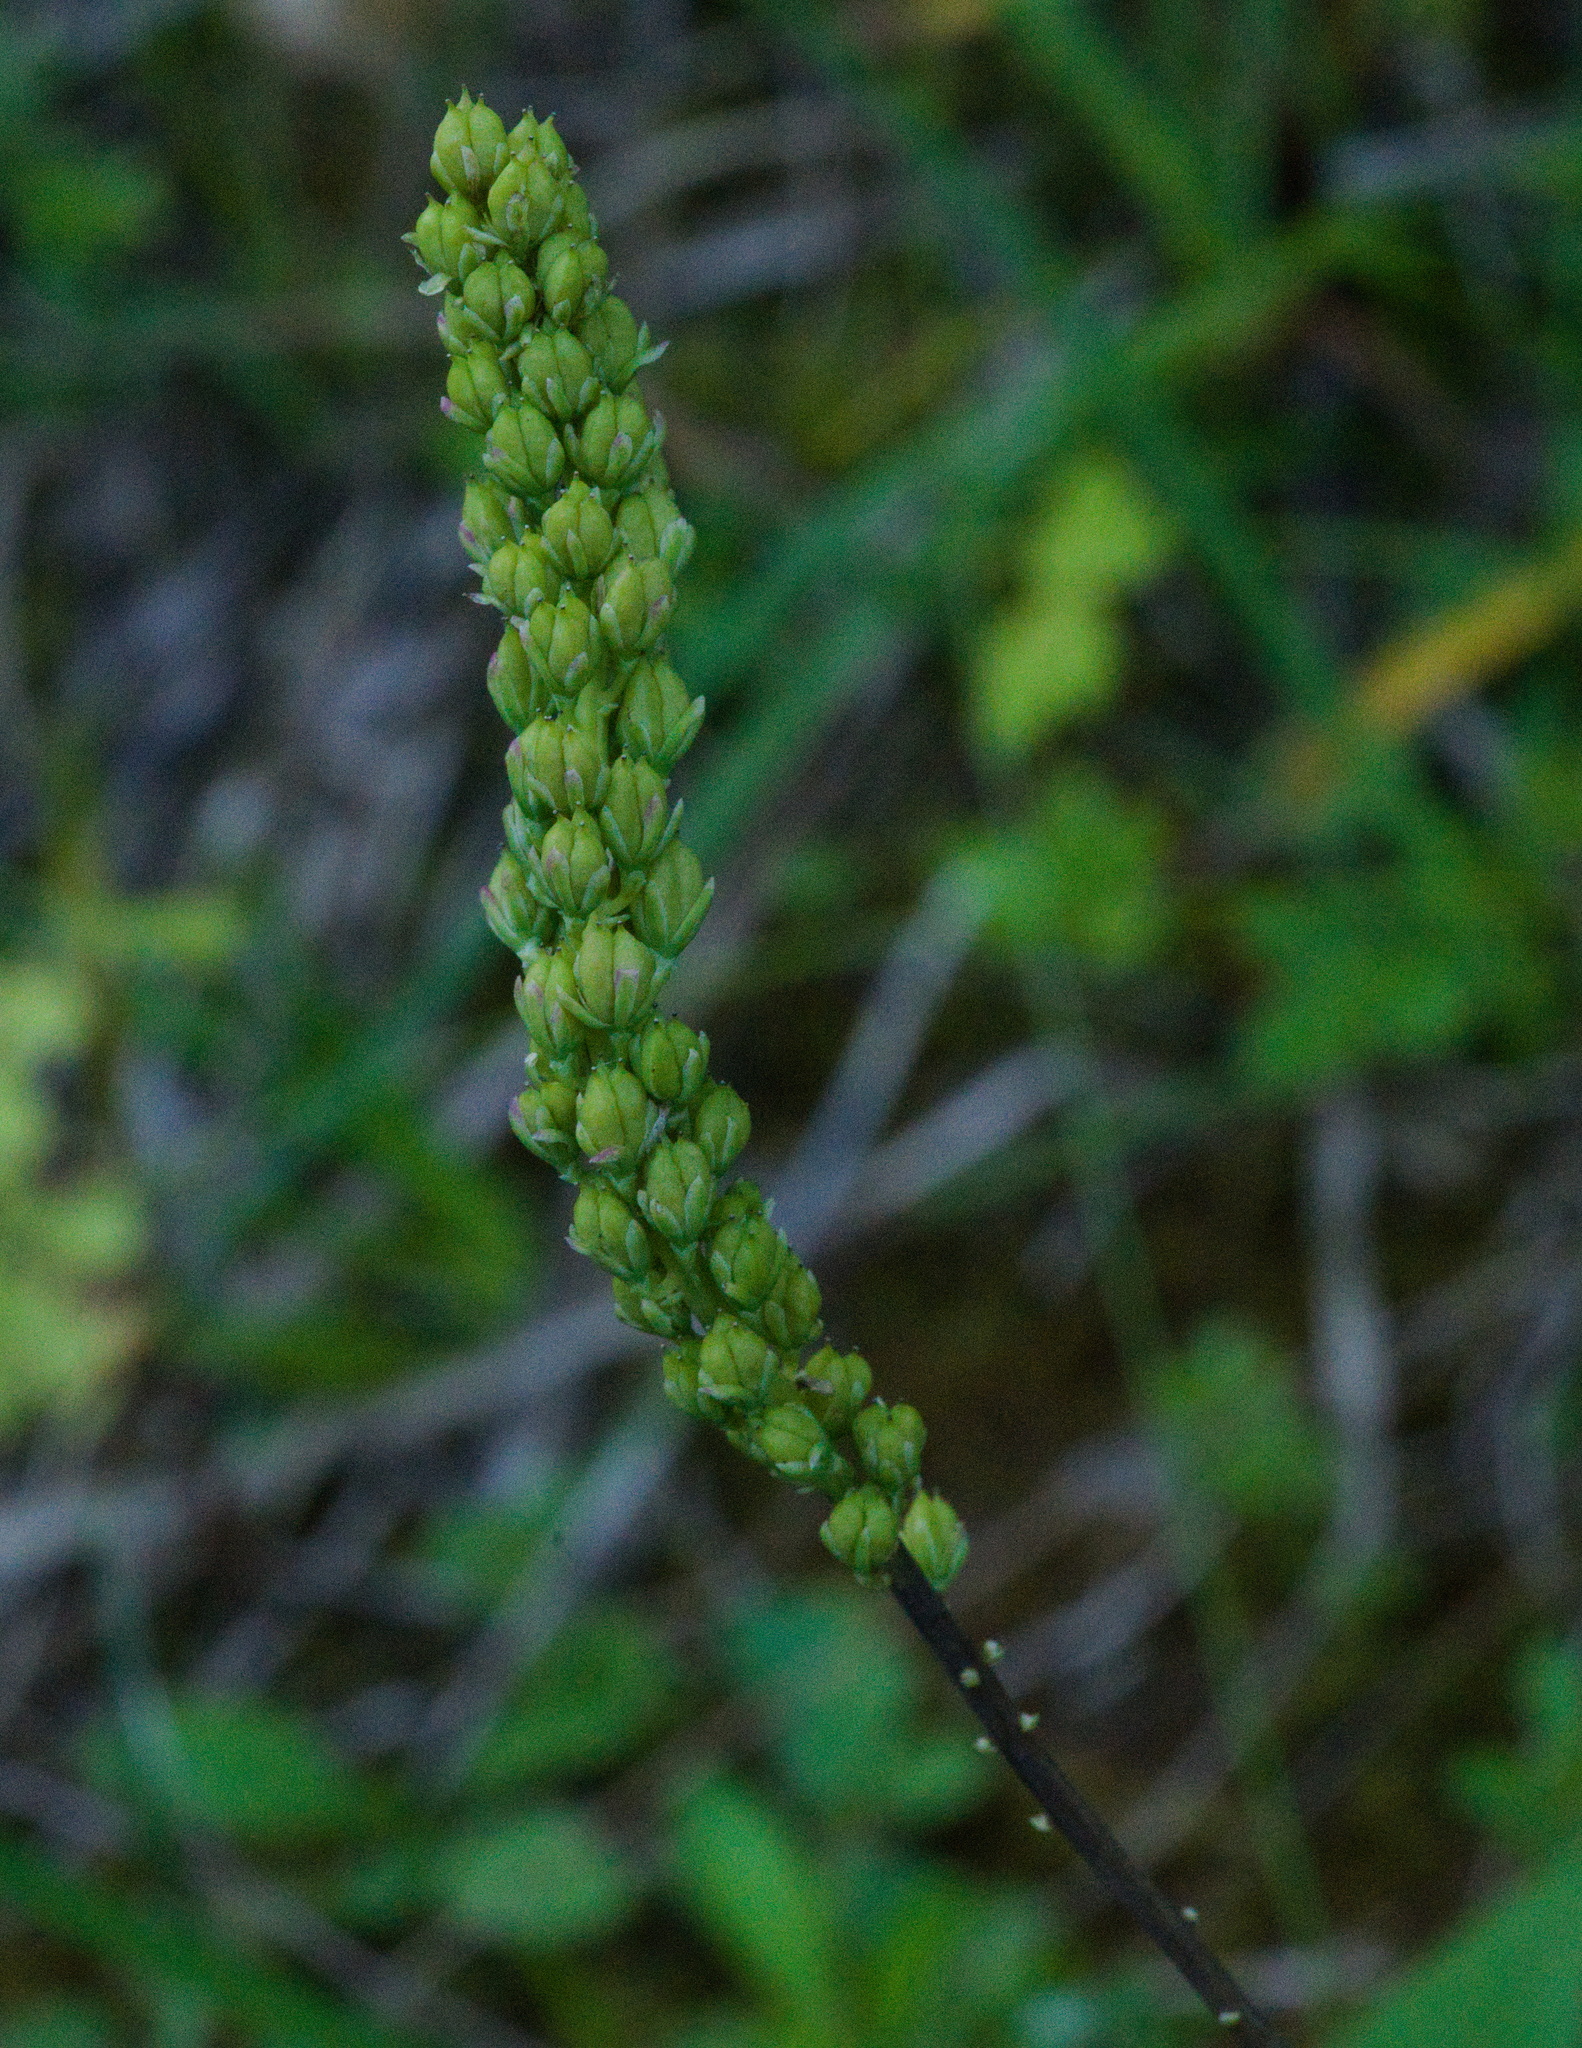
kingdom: Plantae
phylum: Tracheophyta
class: Liliopsida
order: Alismatales
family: Tofieldiaceae
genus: Tofieldia
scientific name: Tofieldia calyculata
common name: German-asphodel
